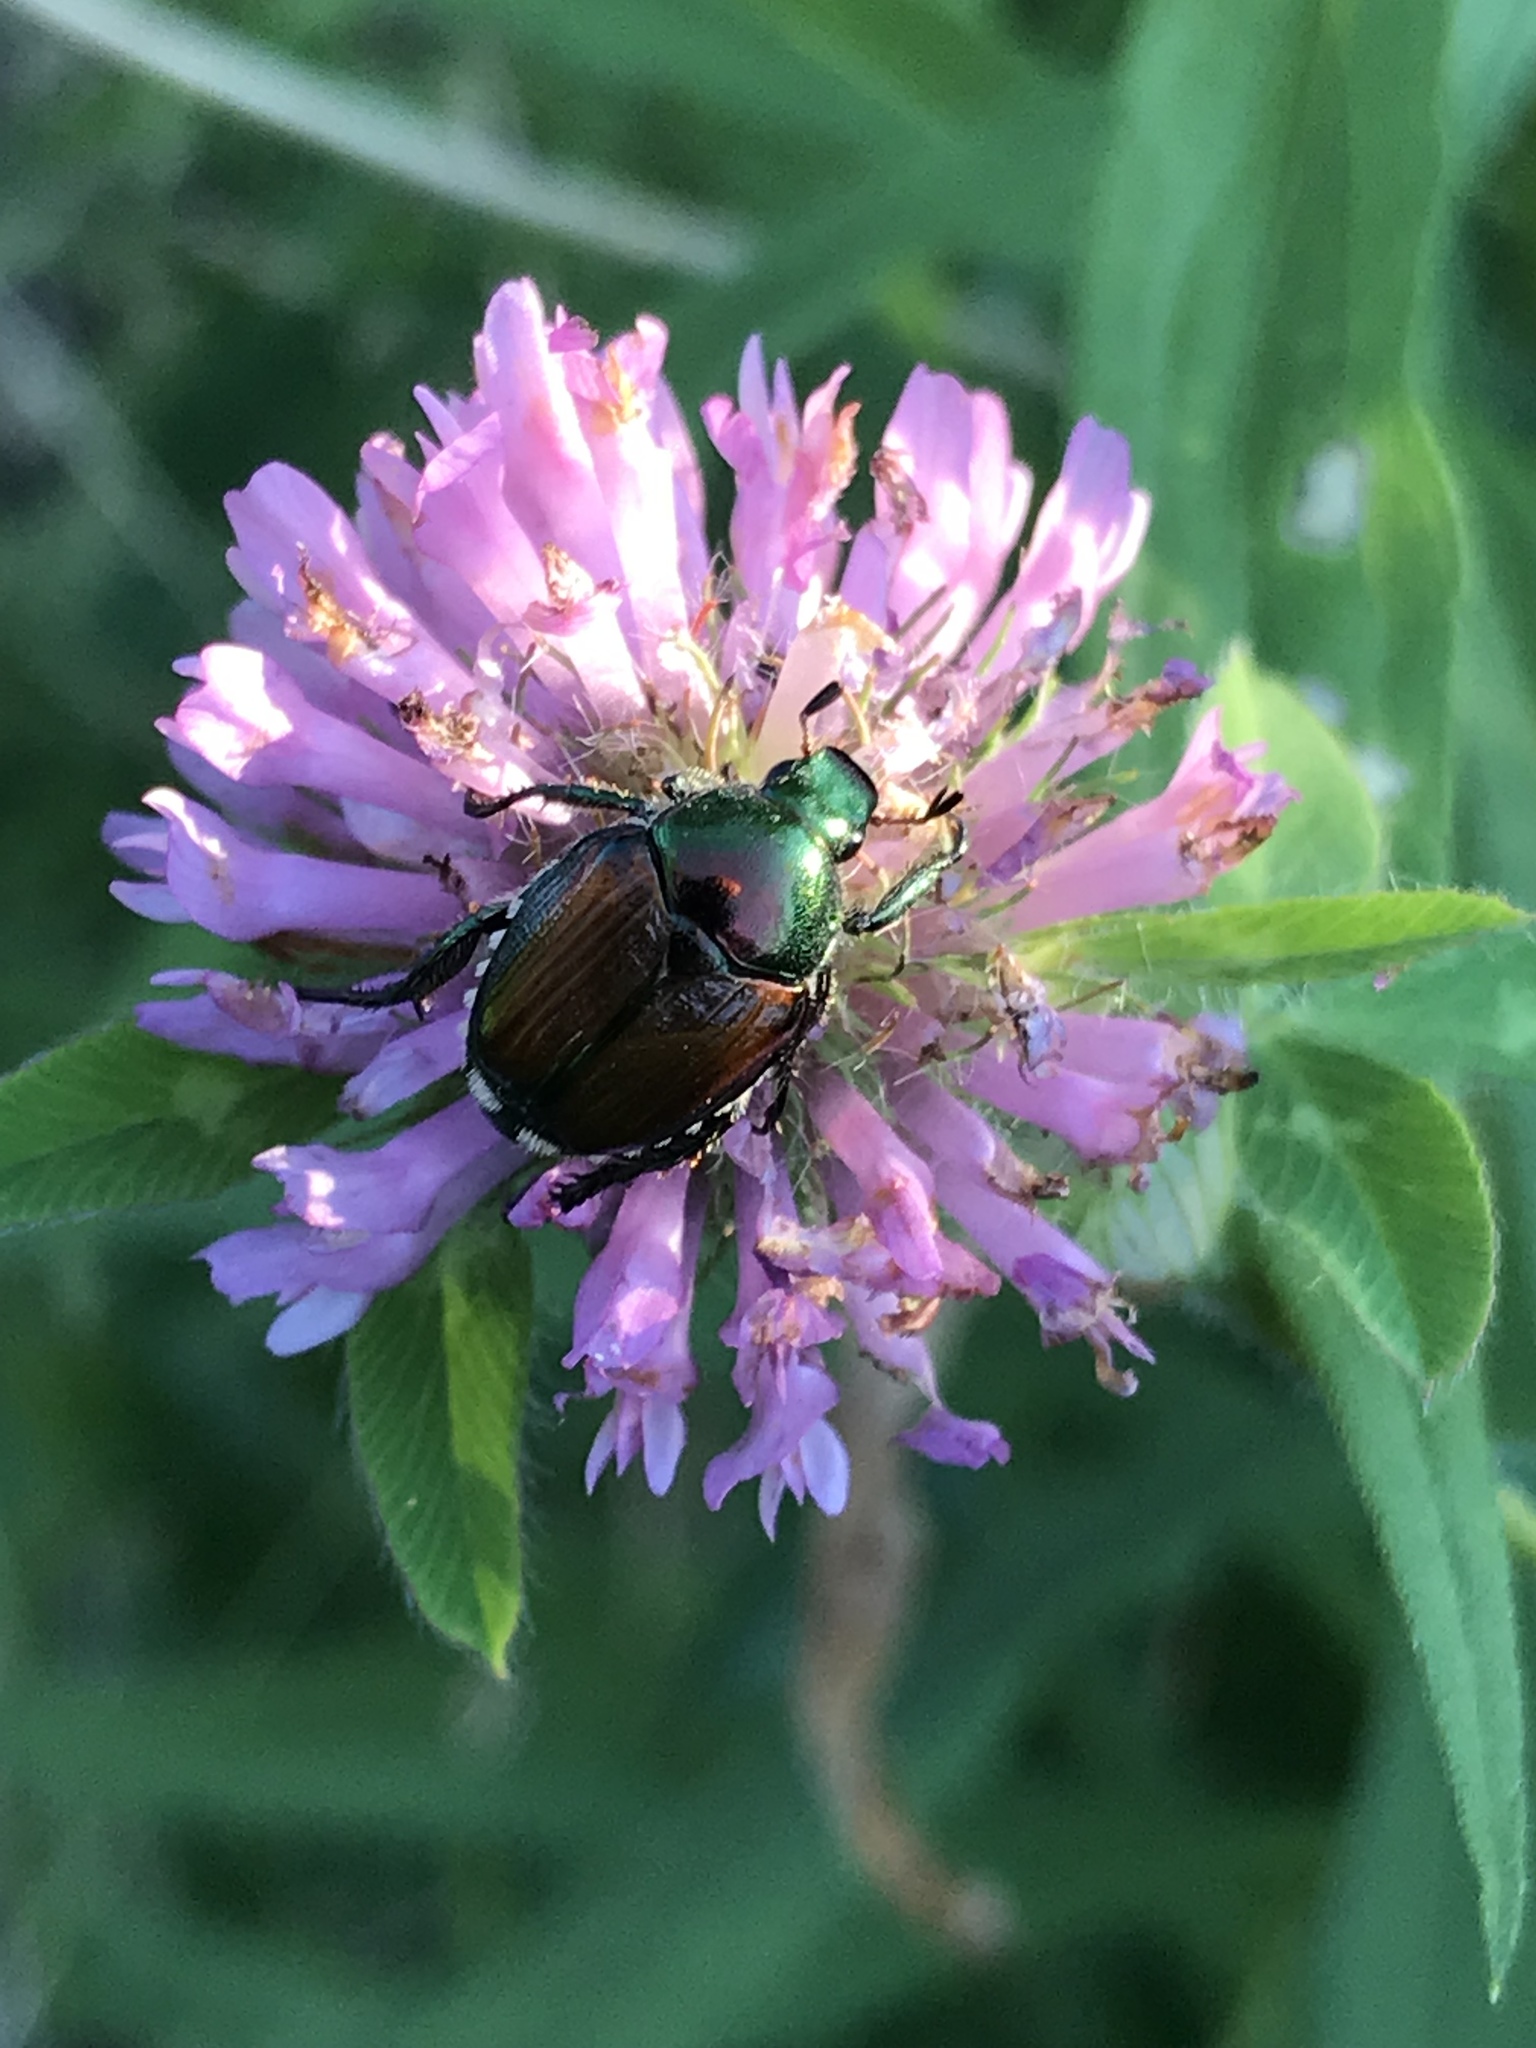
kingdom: Animalia
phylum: Arthropoda
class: Insecta
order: Coleoptera
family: Scarabaeidae
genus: Popillia
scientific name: Popillia japonica
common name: Japanese beetle
